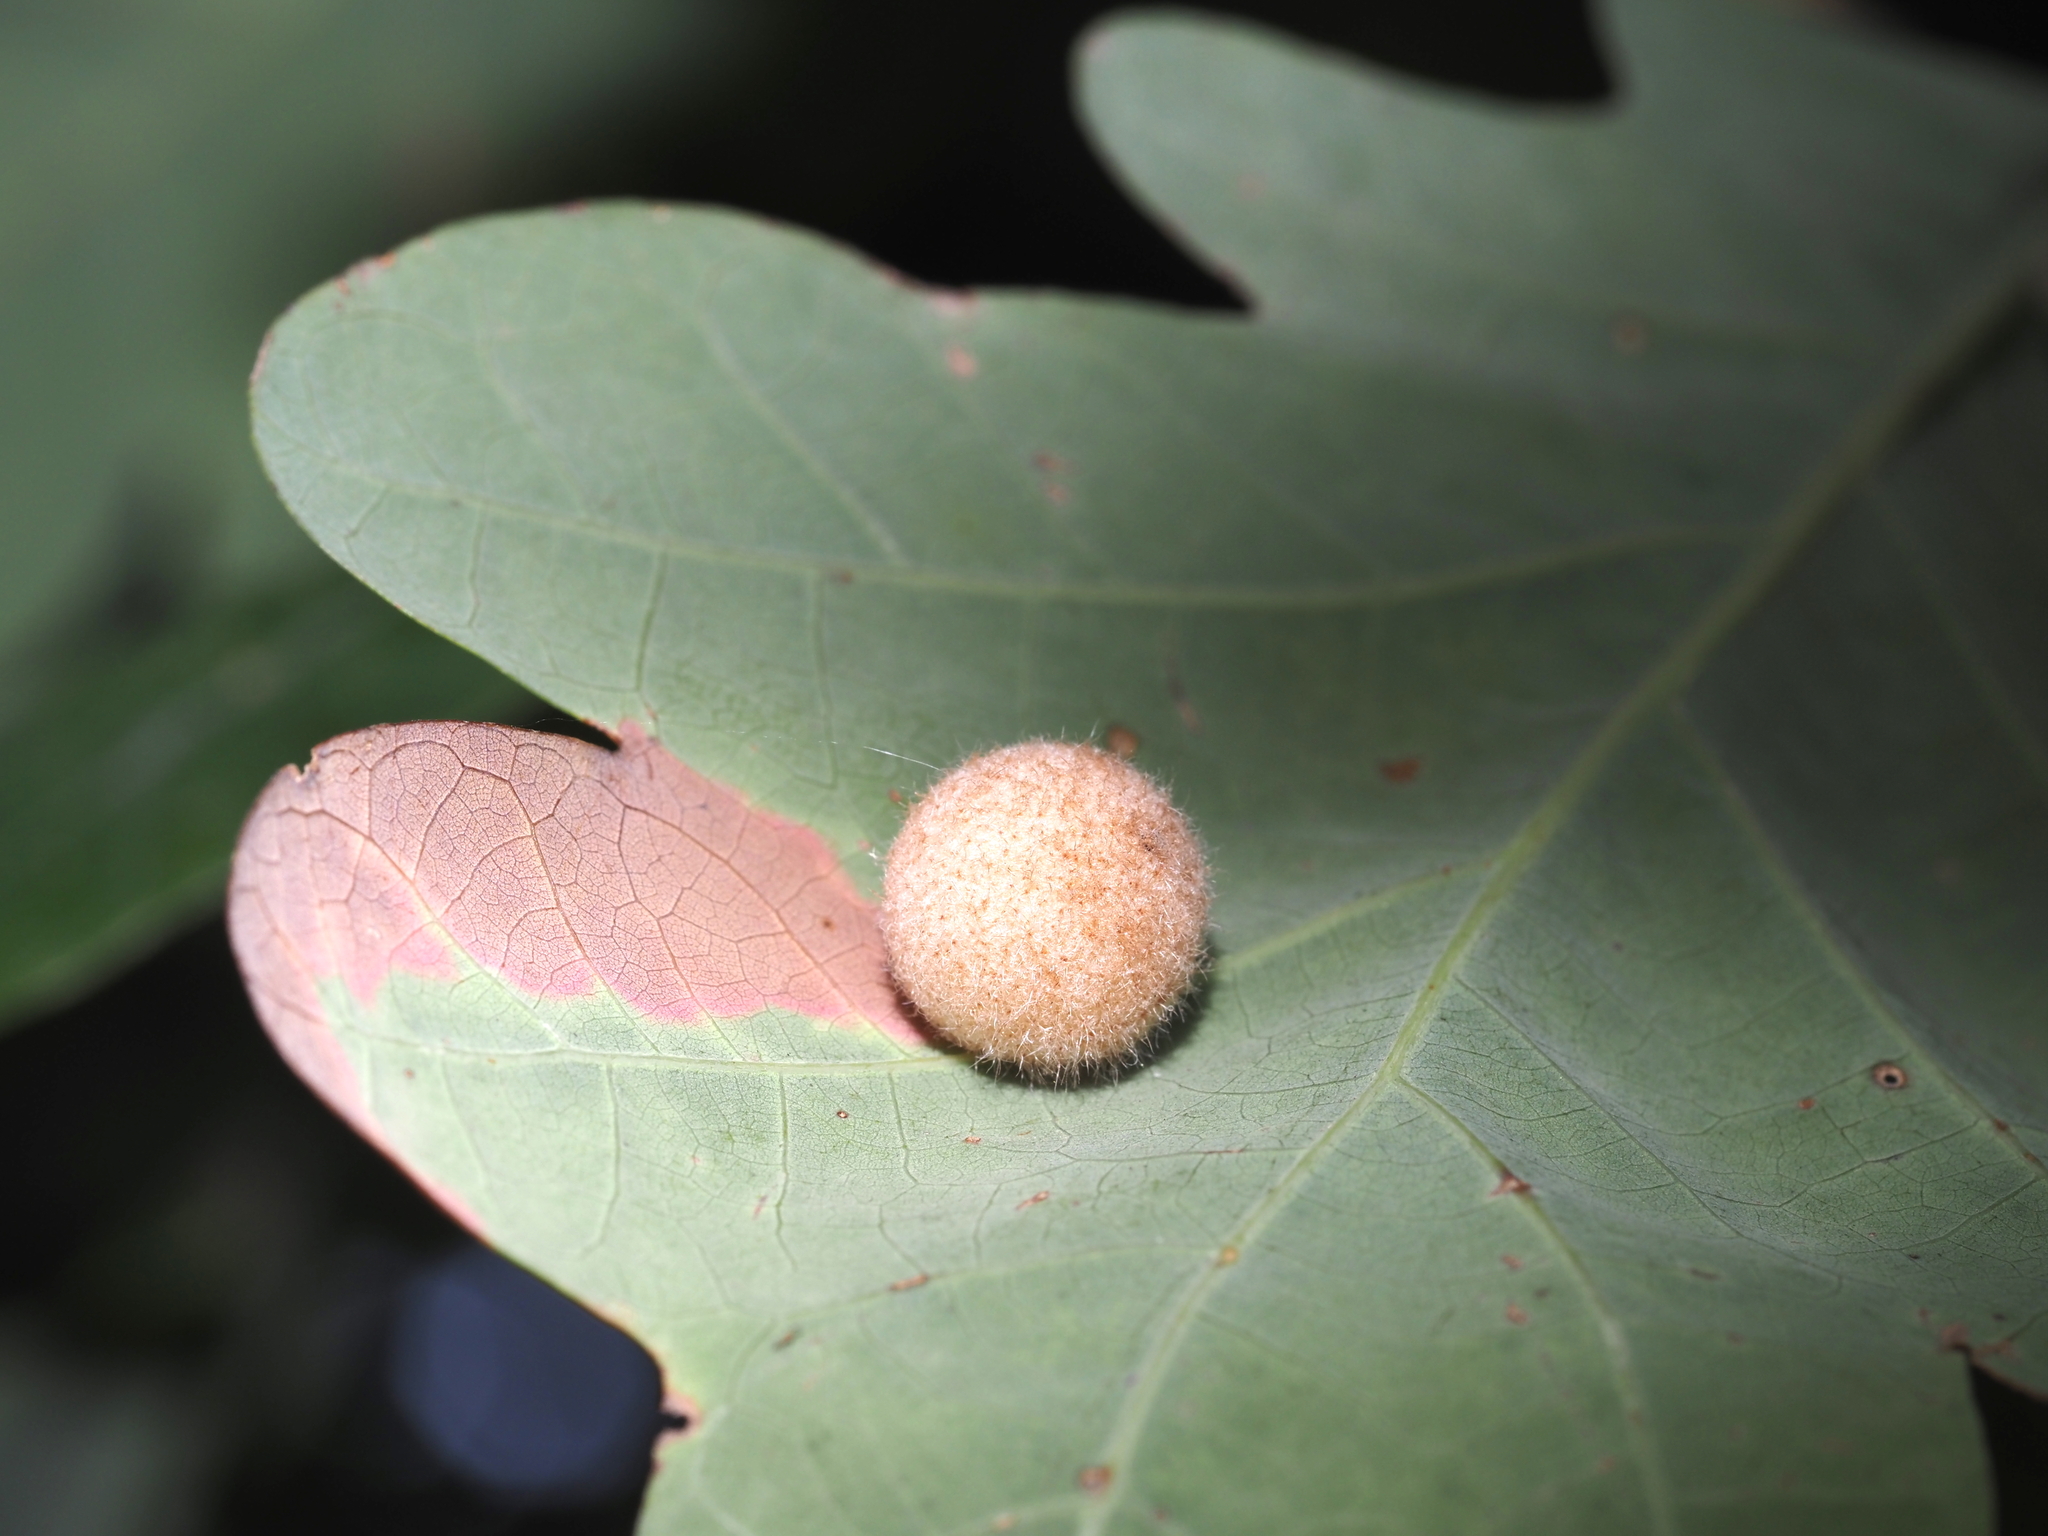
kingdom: Animalia
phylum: Arthropoda
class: Insecta
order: Hymenoptera
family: Cynipidae
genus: Philonix
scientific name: Philonix fulvicollis
